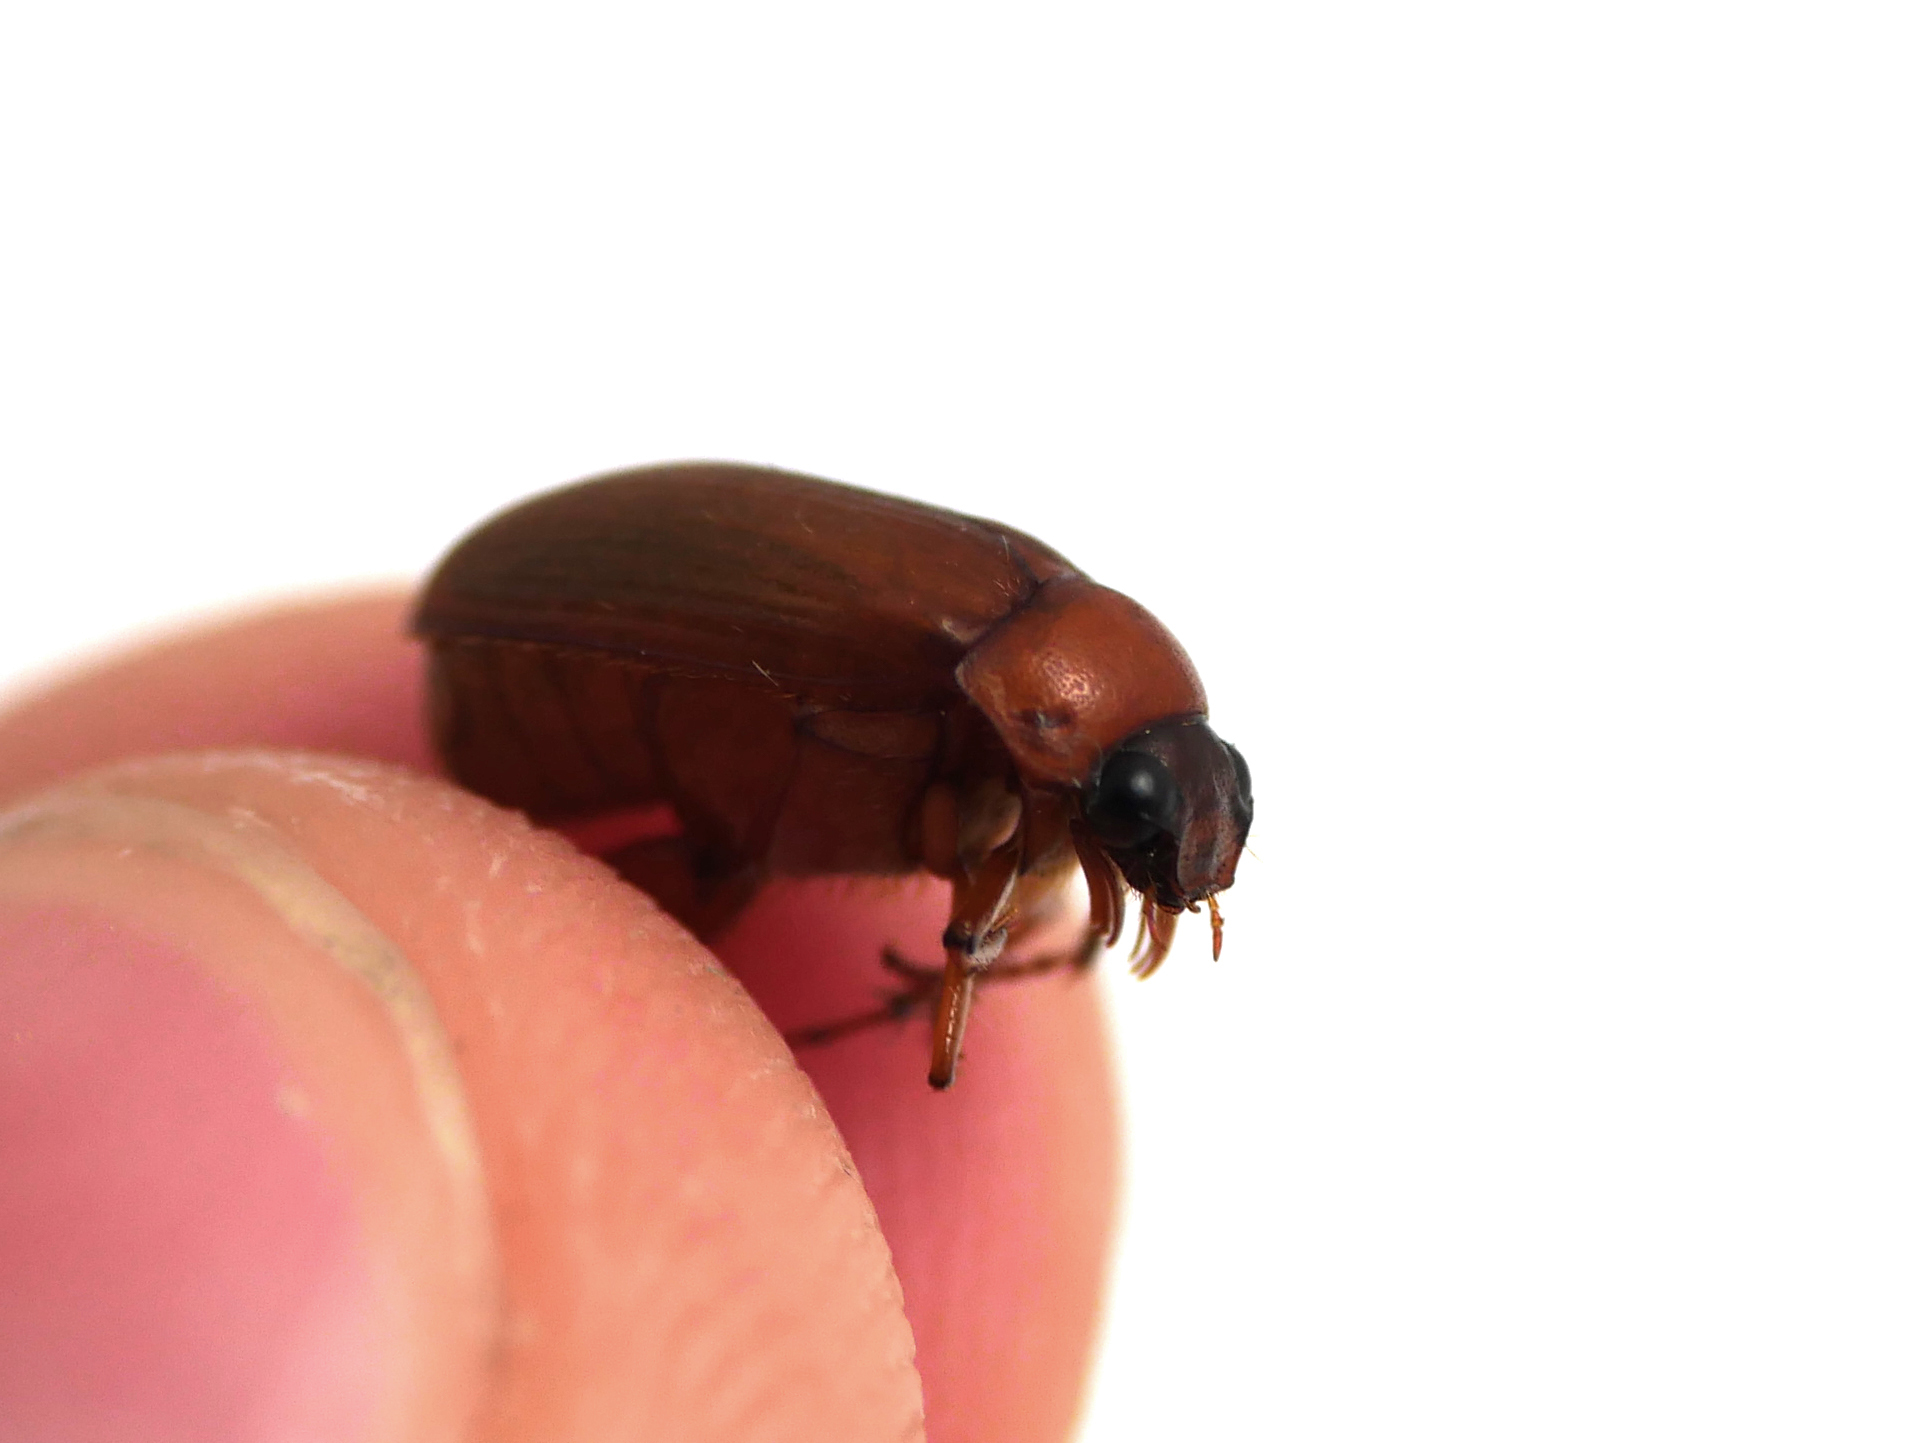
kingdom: Animalia
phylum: Arthropoda
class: Insecta
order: Coleoptera
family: Scarabaeidae
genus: Serica
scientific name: Serica brunnea
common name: Brown chafer
